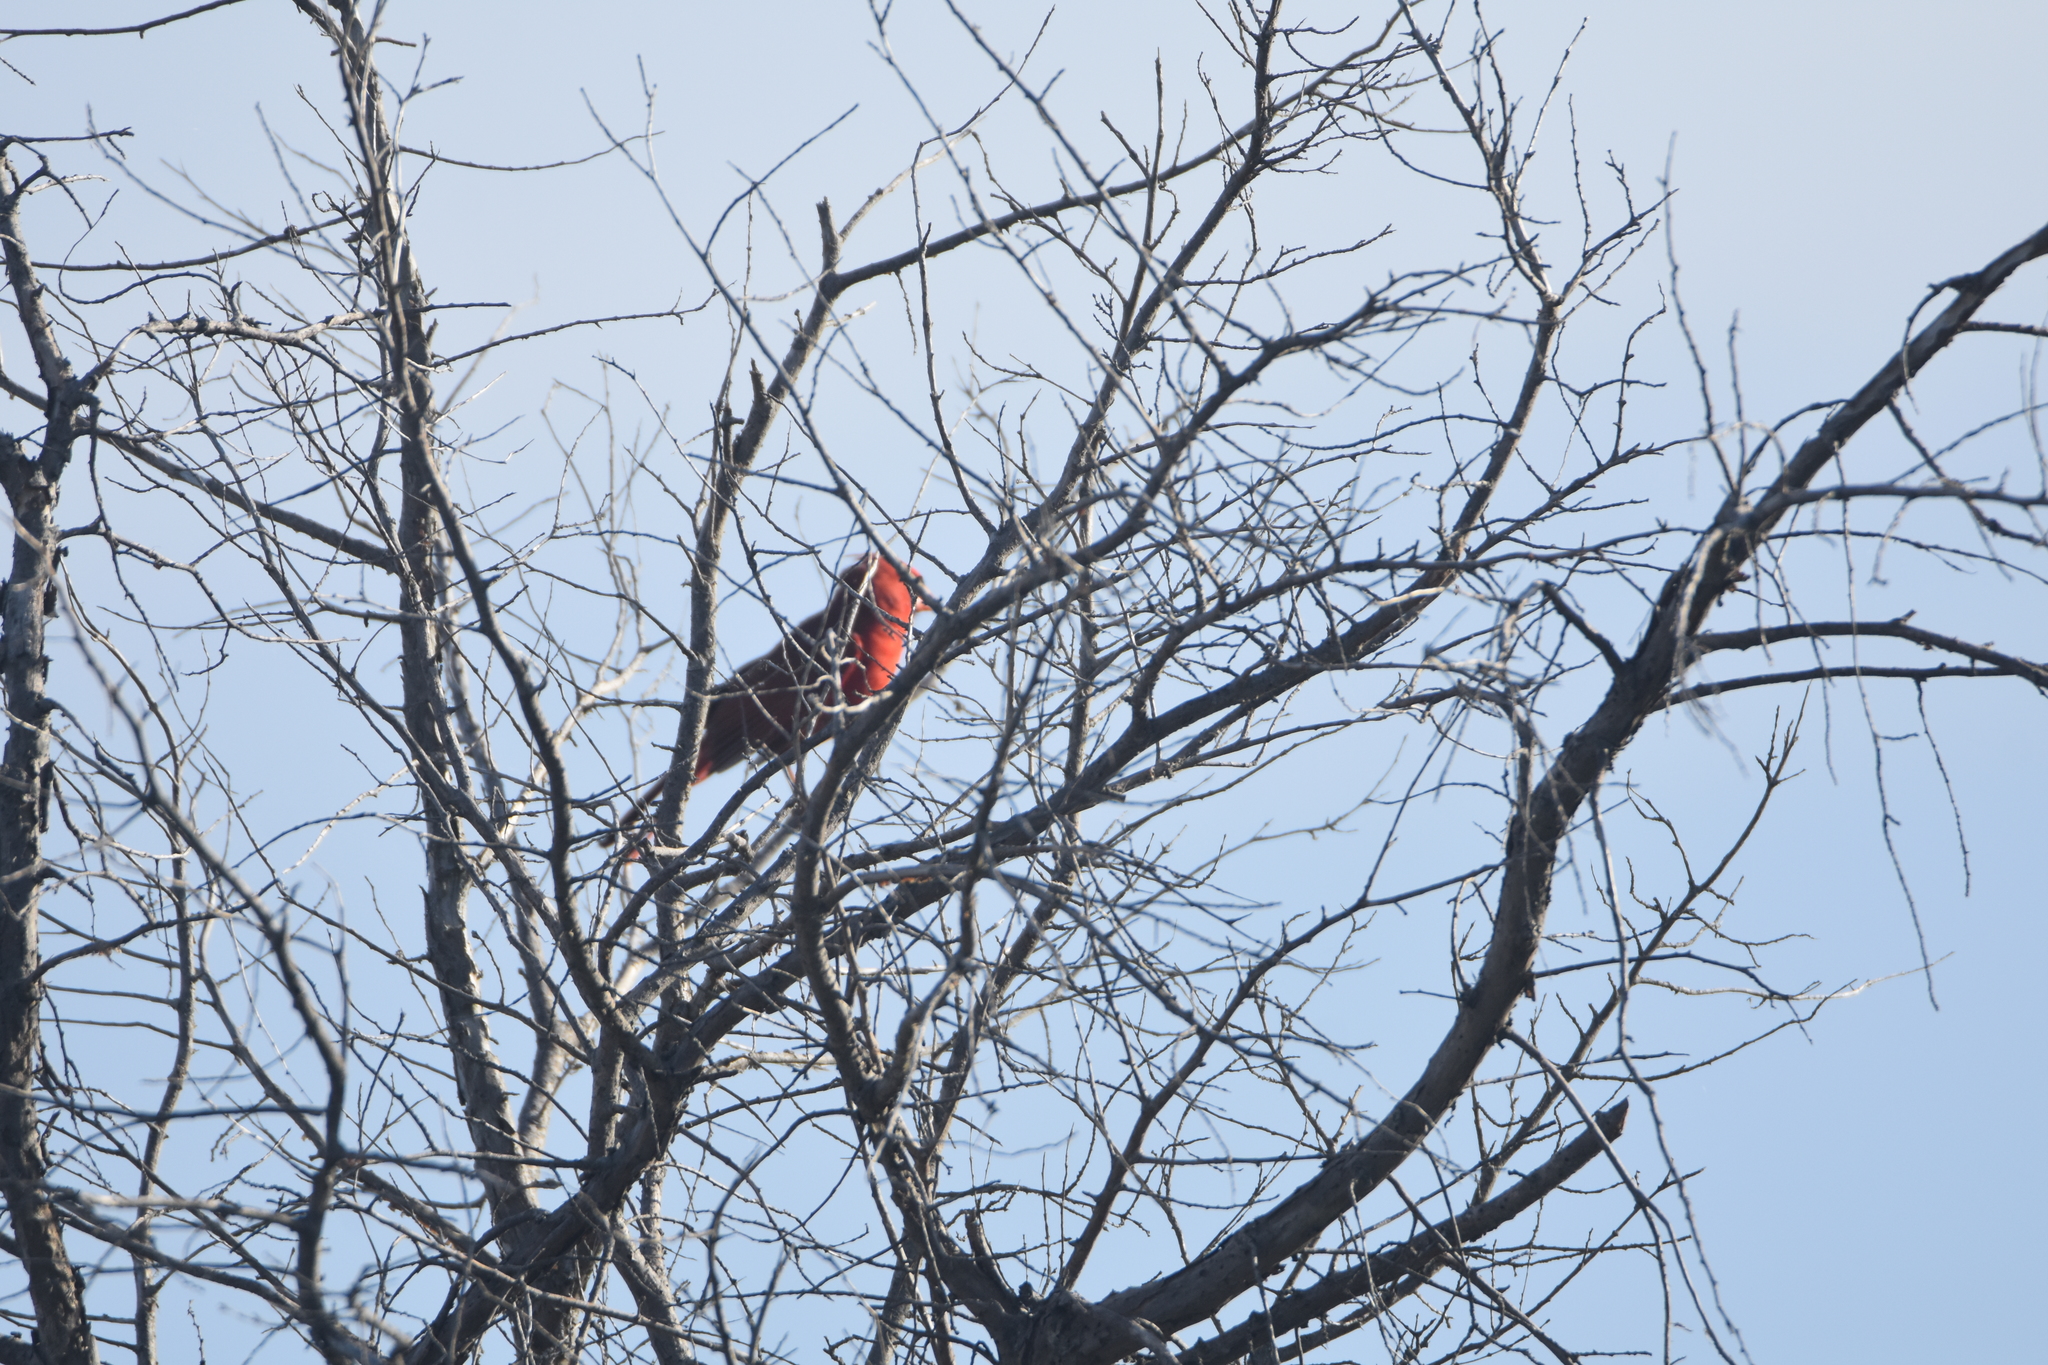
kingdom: Animalia
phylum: Chordata
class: Aves
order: Passeriformes
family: Cardinalidae
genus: Cardinalis
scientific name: Cardinalis cardinalis
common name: Northern cardinal
